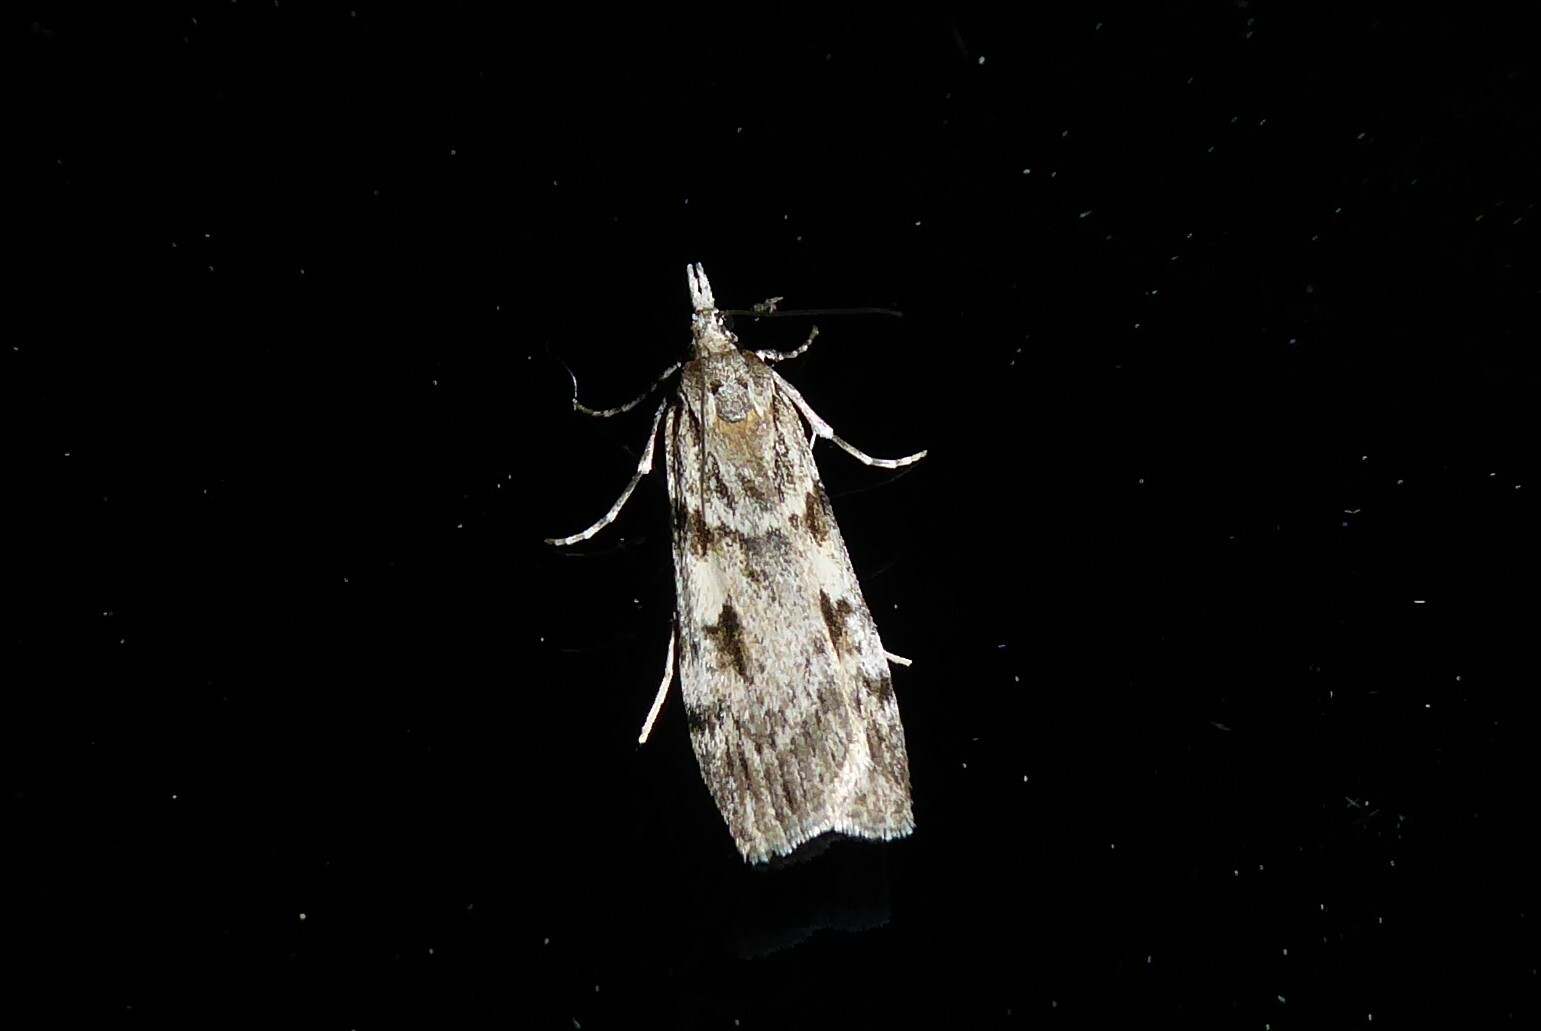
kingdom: Animalia
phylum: Arthropoda
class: Insecta
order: Lepidoptera
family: Crambidae
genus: Scoparia
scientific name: Scoparia halopis
